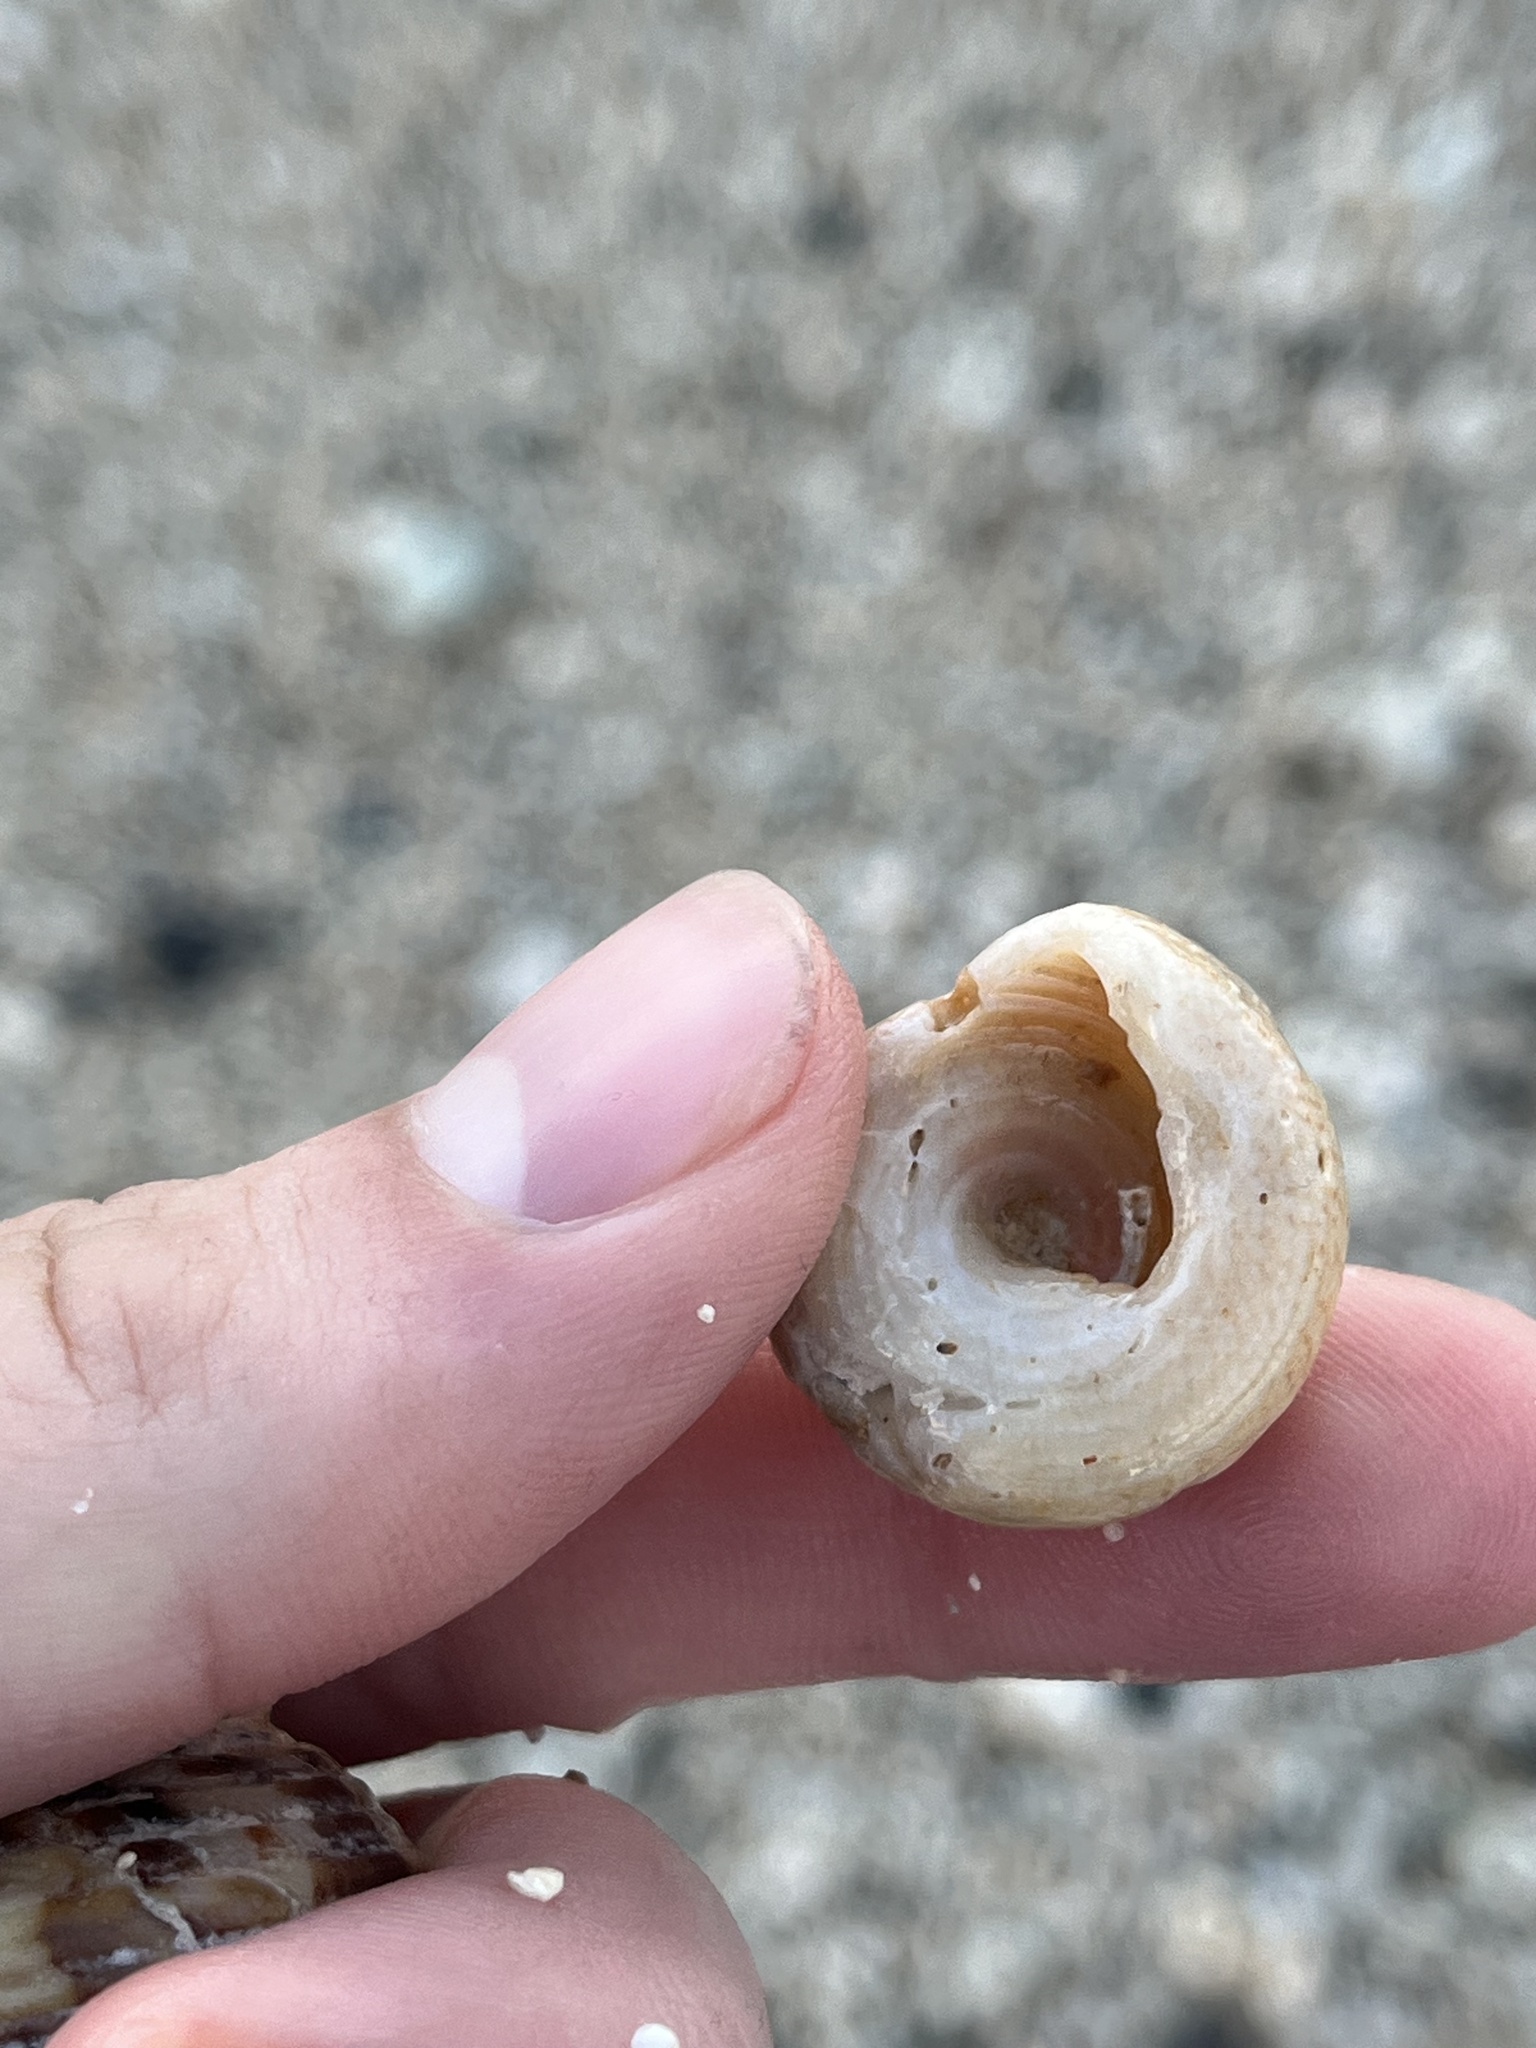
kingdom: Animalia
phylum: Mollusca
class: Gastropoda
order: Trochida
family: Trochidae
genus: Trochus
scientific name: Trochus intextus
